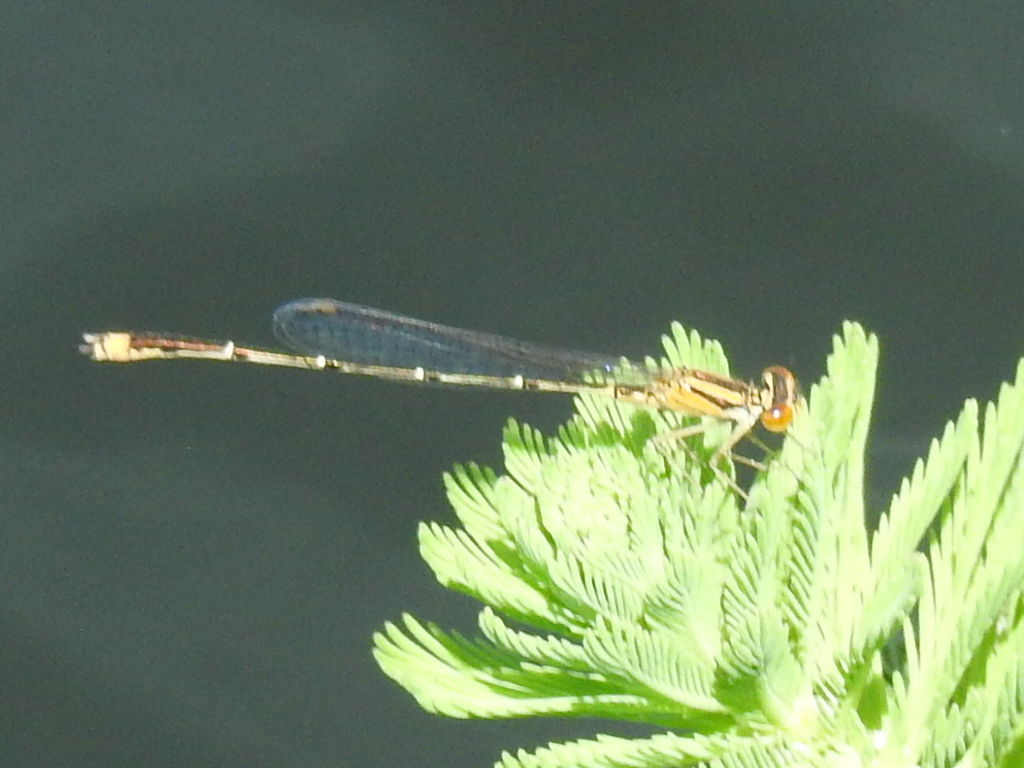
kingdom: Animalia
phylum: Arthropoda
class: Insecta
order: Odonata
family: Coenagrionidae
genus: Enallagma
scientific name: Enallagma signatum
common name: Orange bluet
